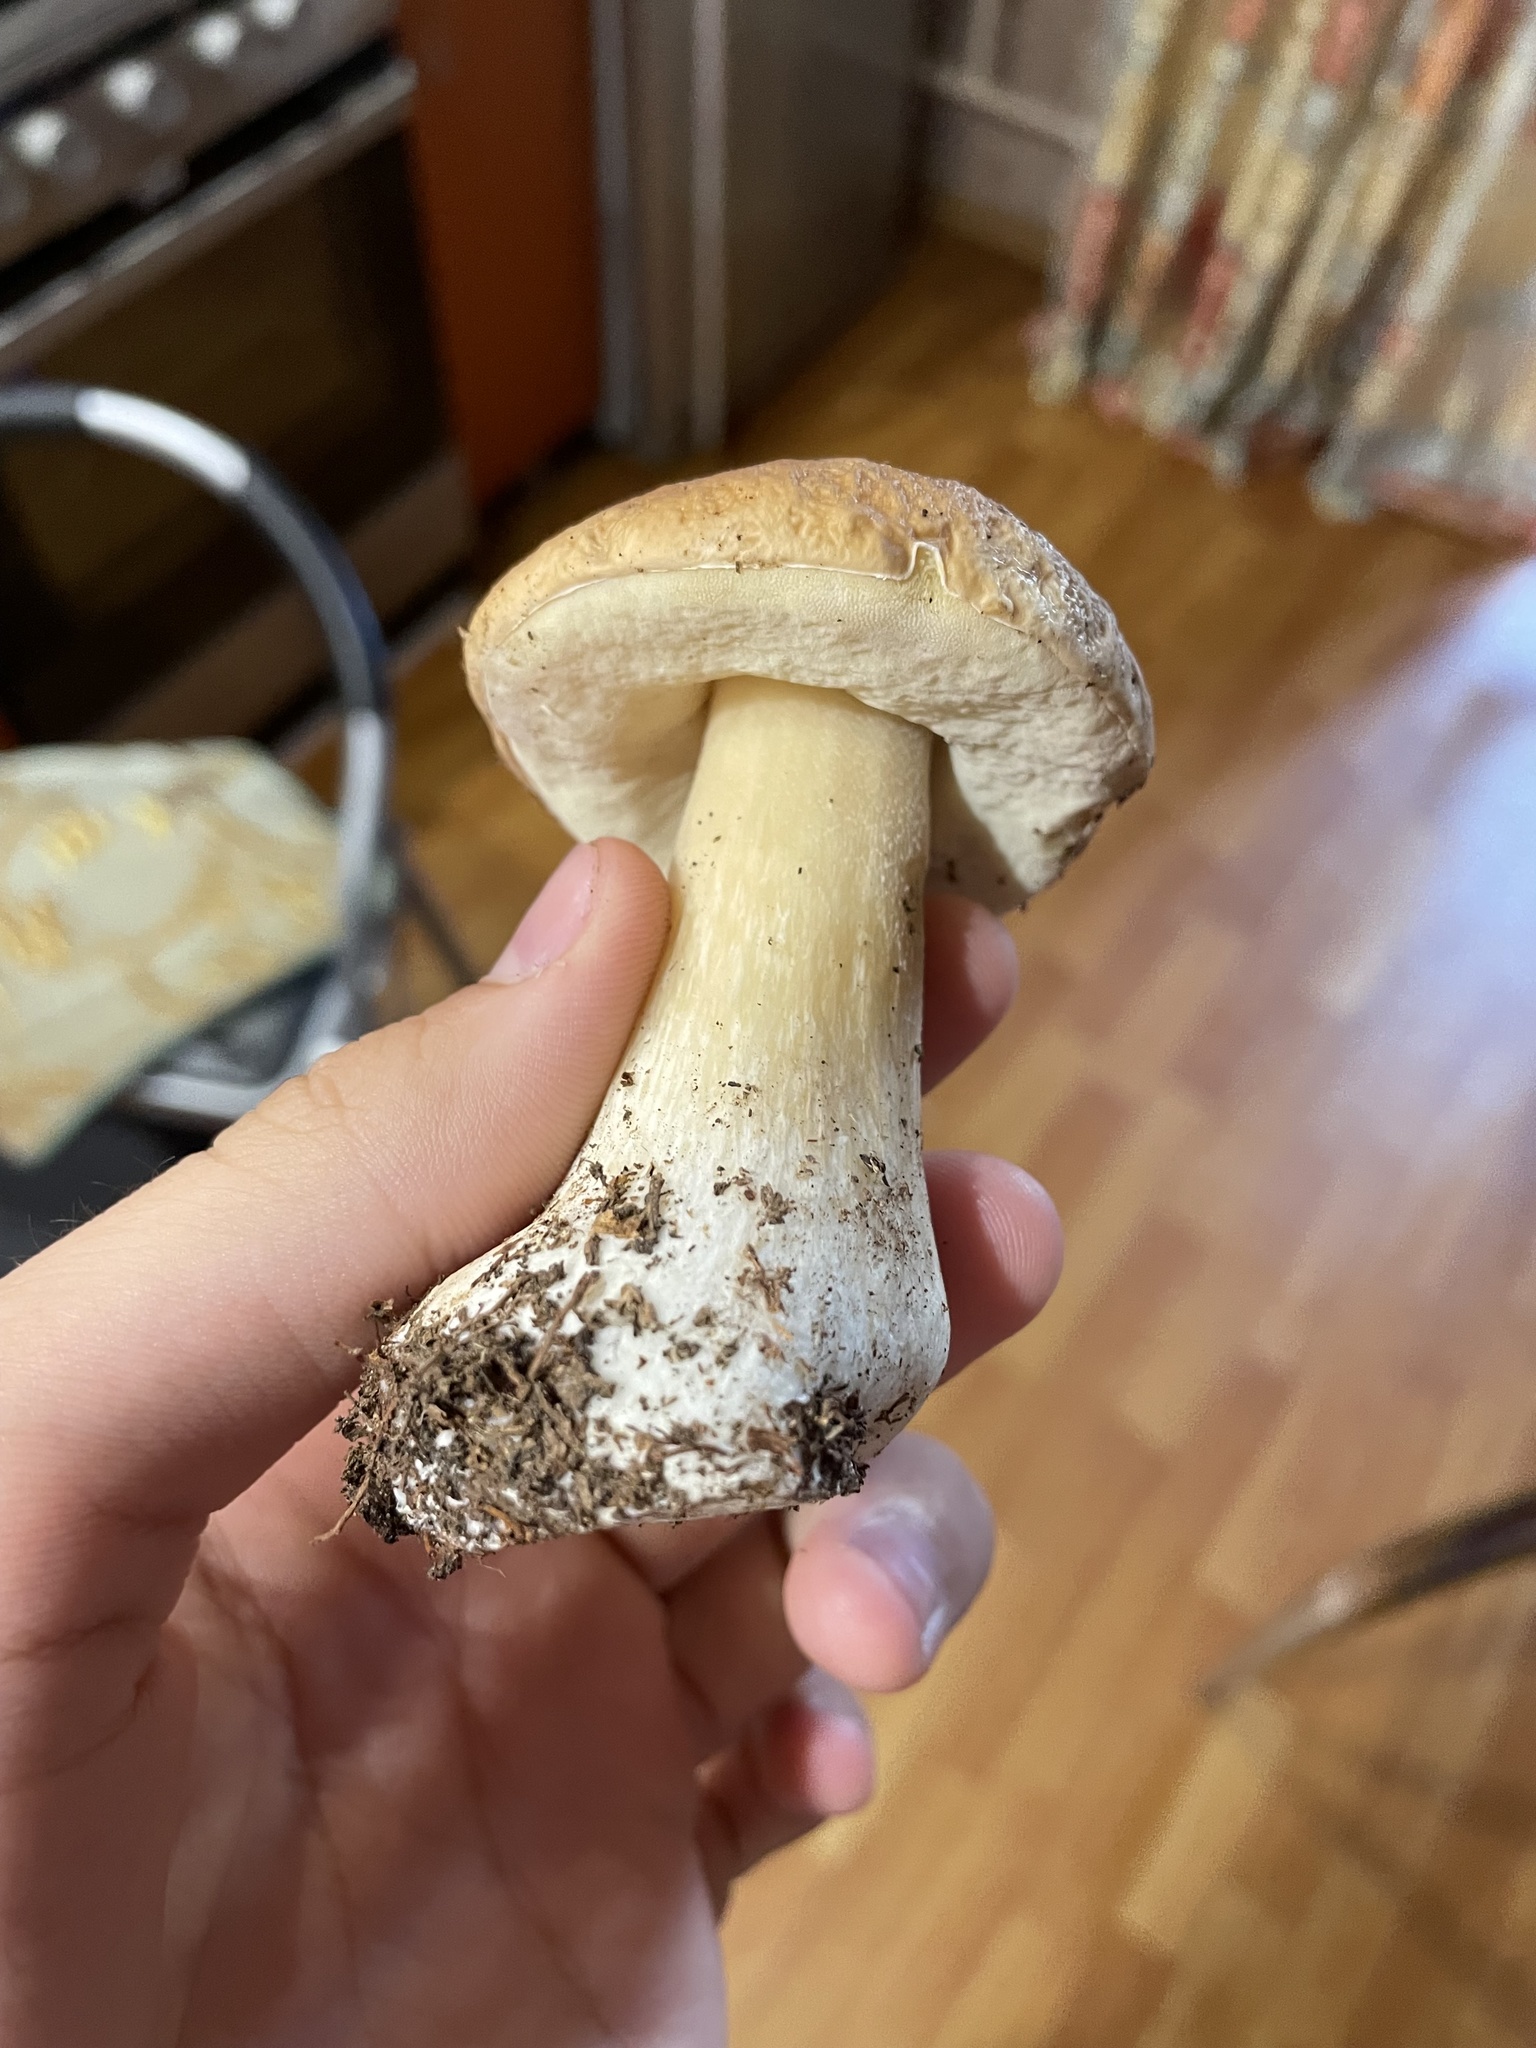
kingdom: Fungi
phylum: Basidiomycota
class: Agaricomycetes
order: Boletales
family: Boletaceae
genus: Boletus
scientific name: Boletus edulis
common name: Cep
